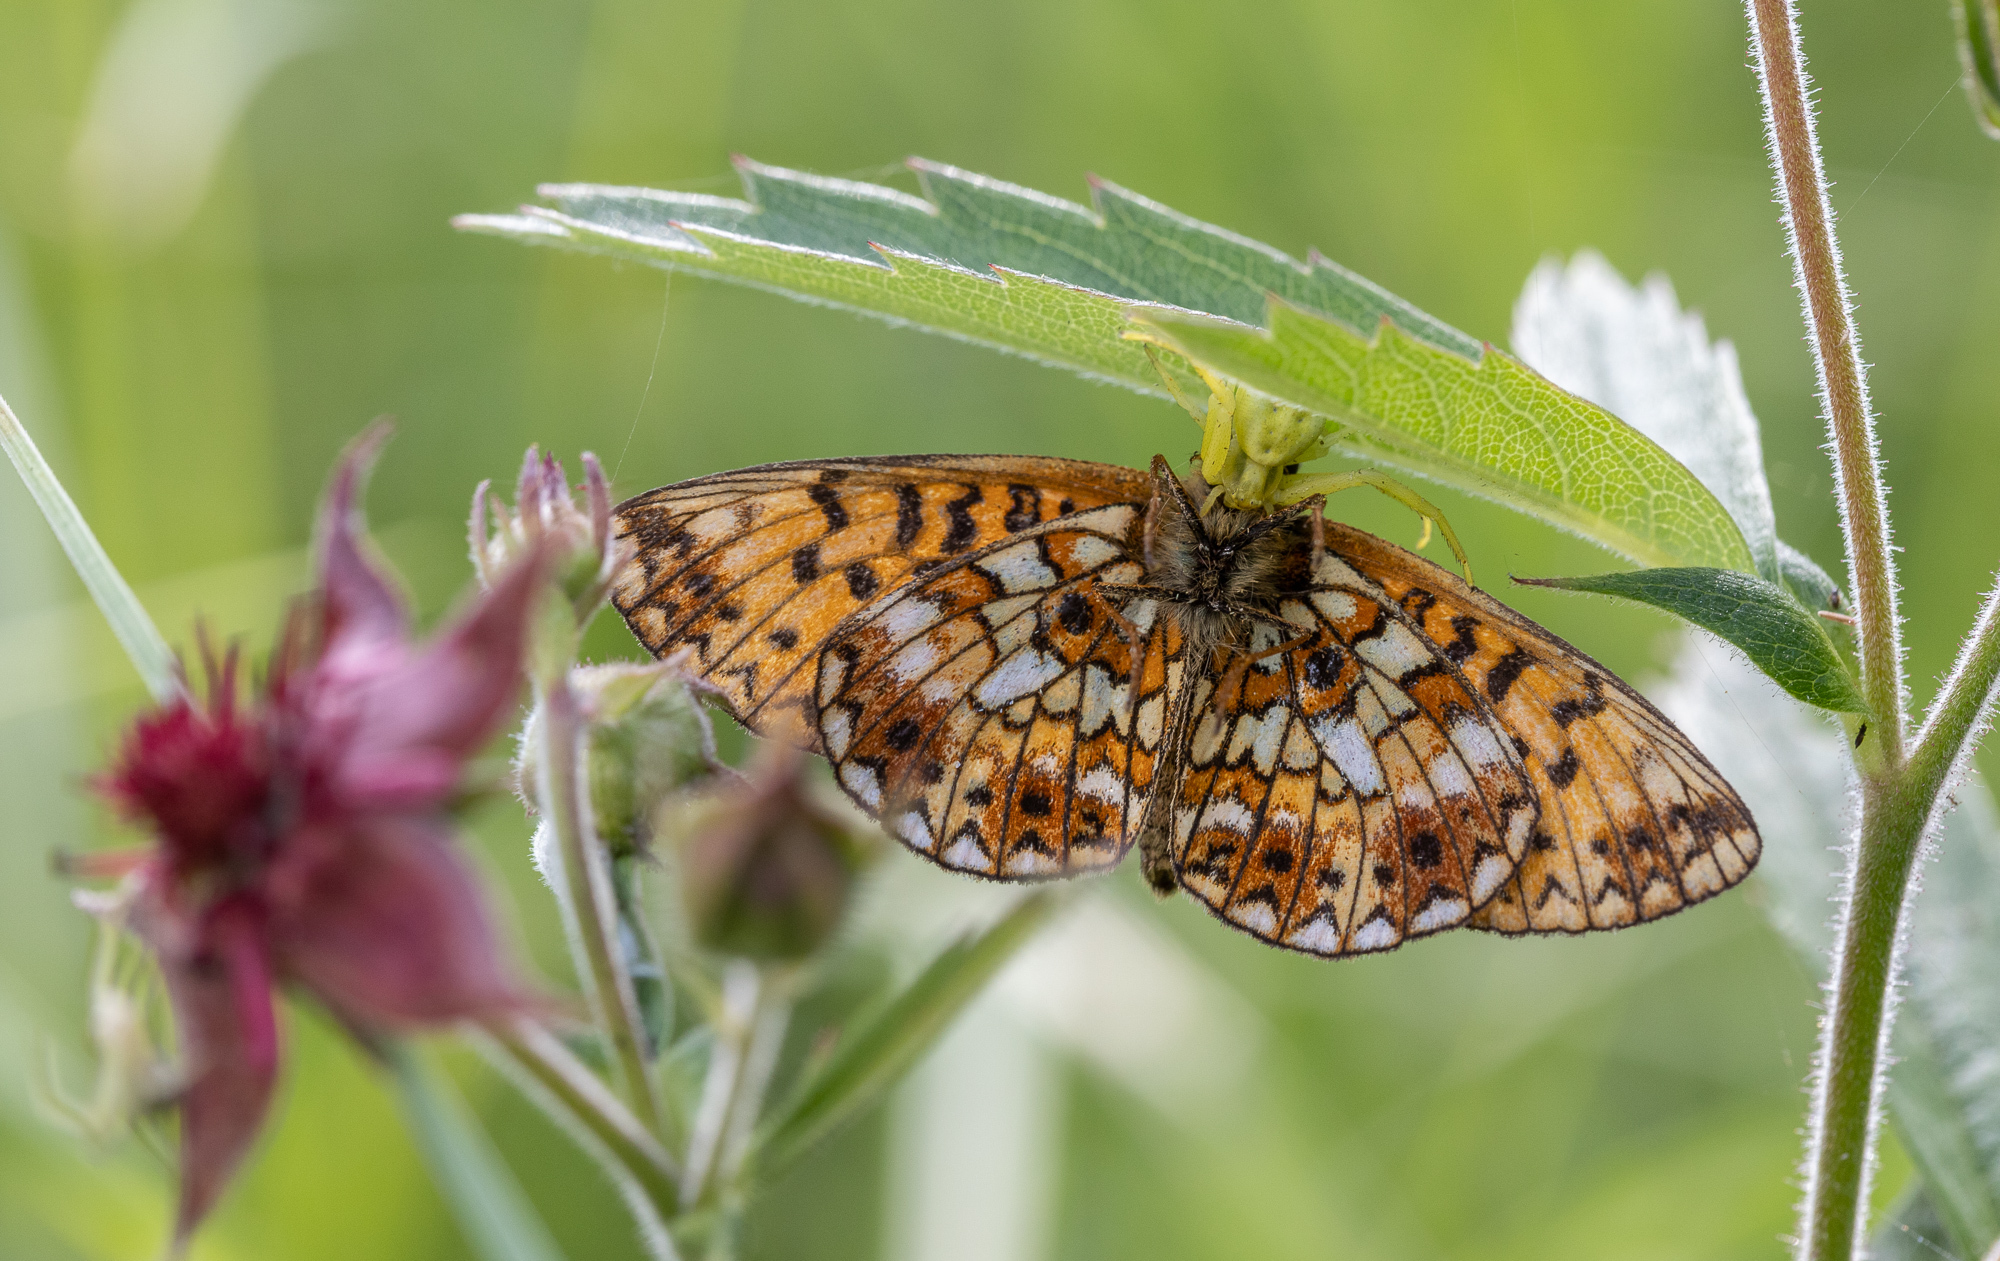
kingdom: Animalia
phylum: Arthropoda
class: Insecta
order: Lepidoptera
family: Nymphalidae
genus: Boloria
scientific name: Boloria selene
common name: Small pearl-bordered fritillary
